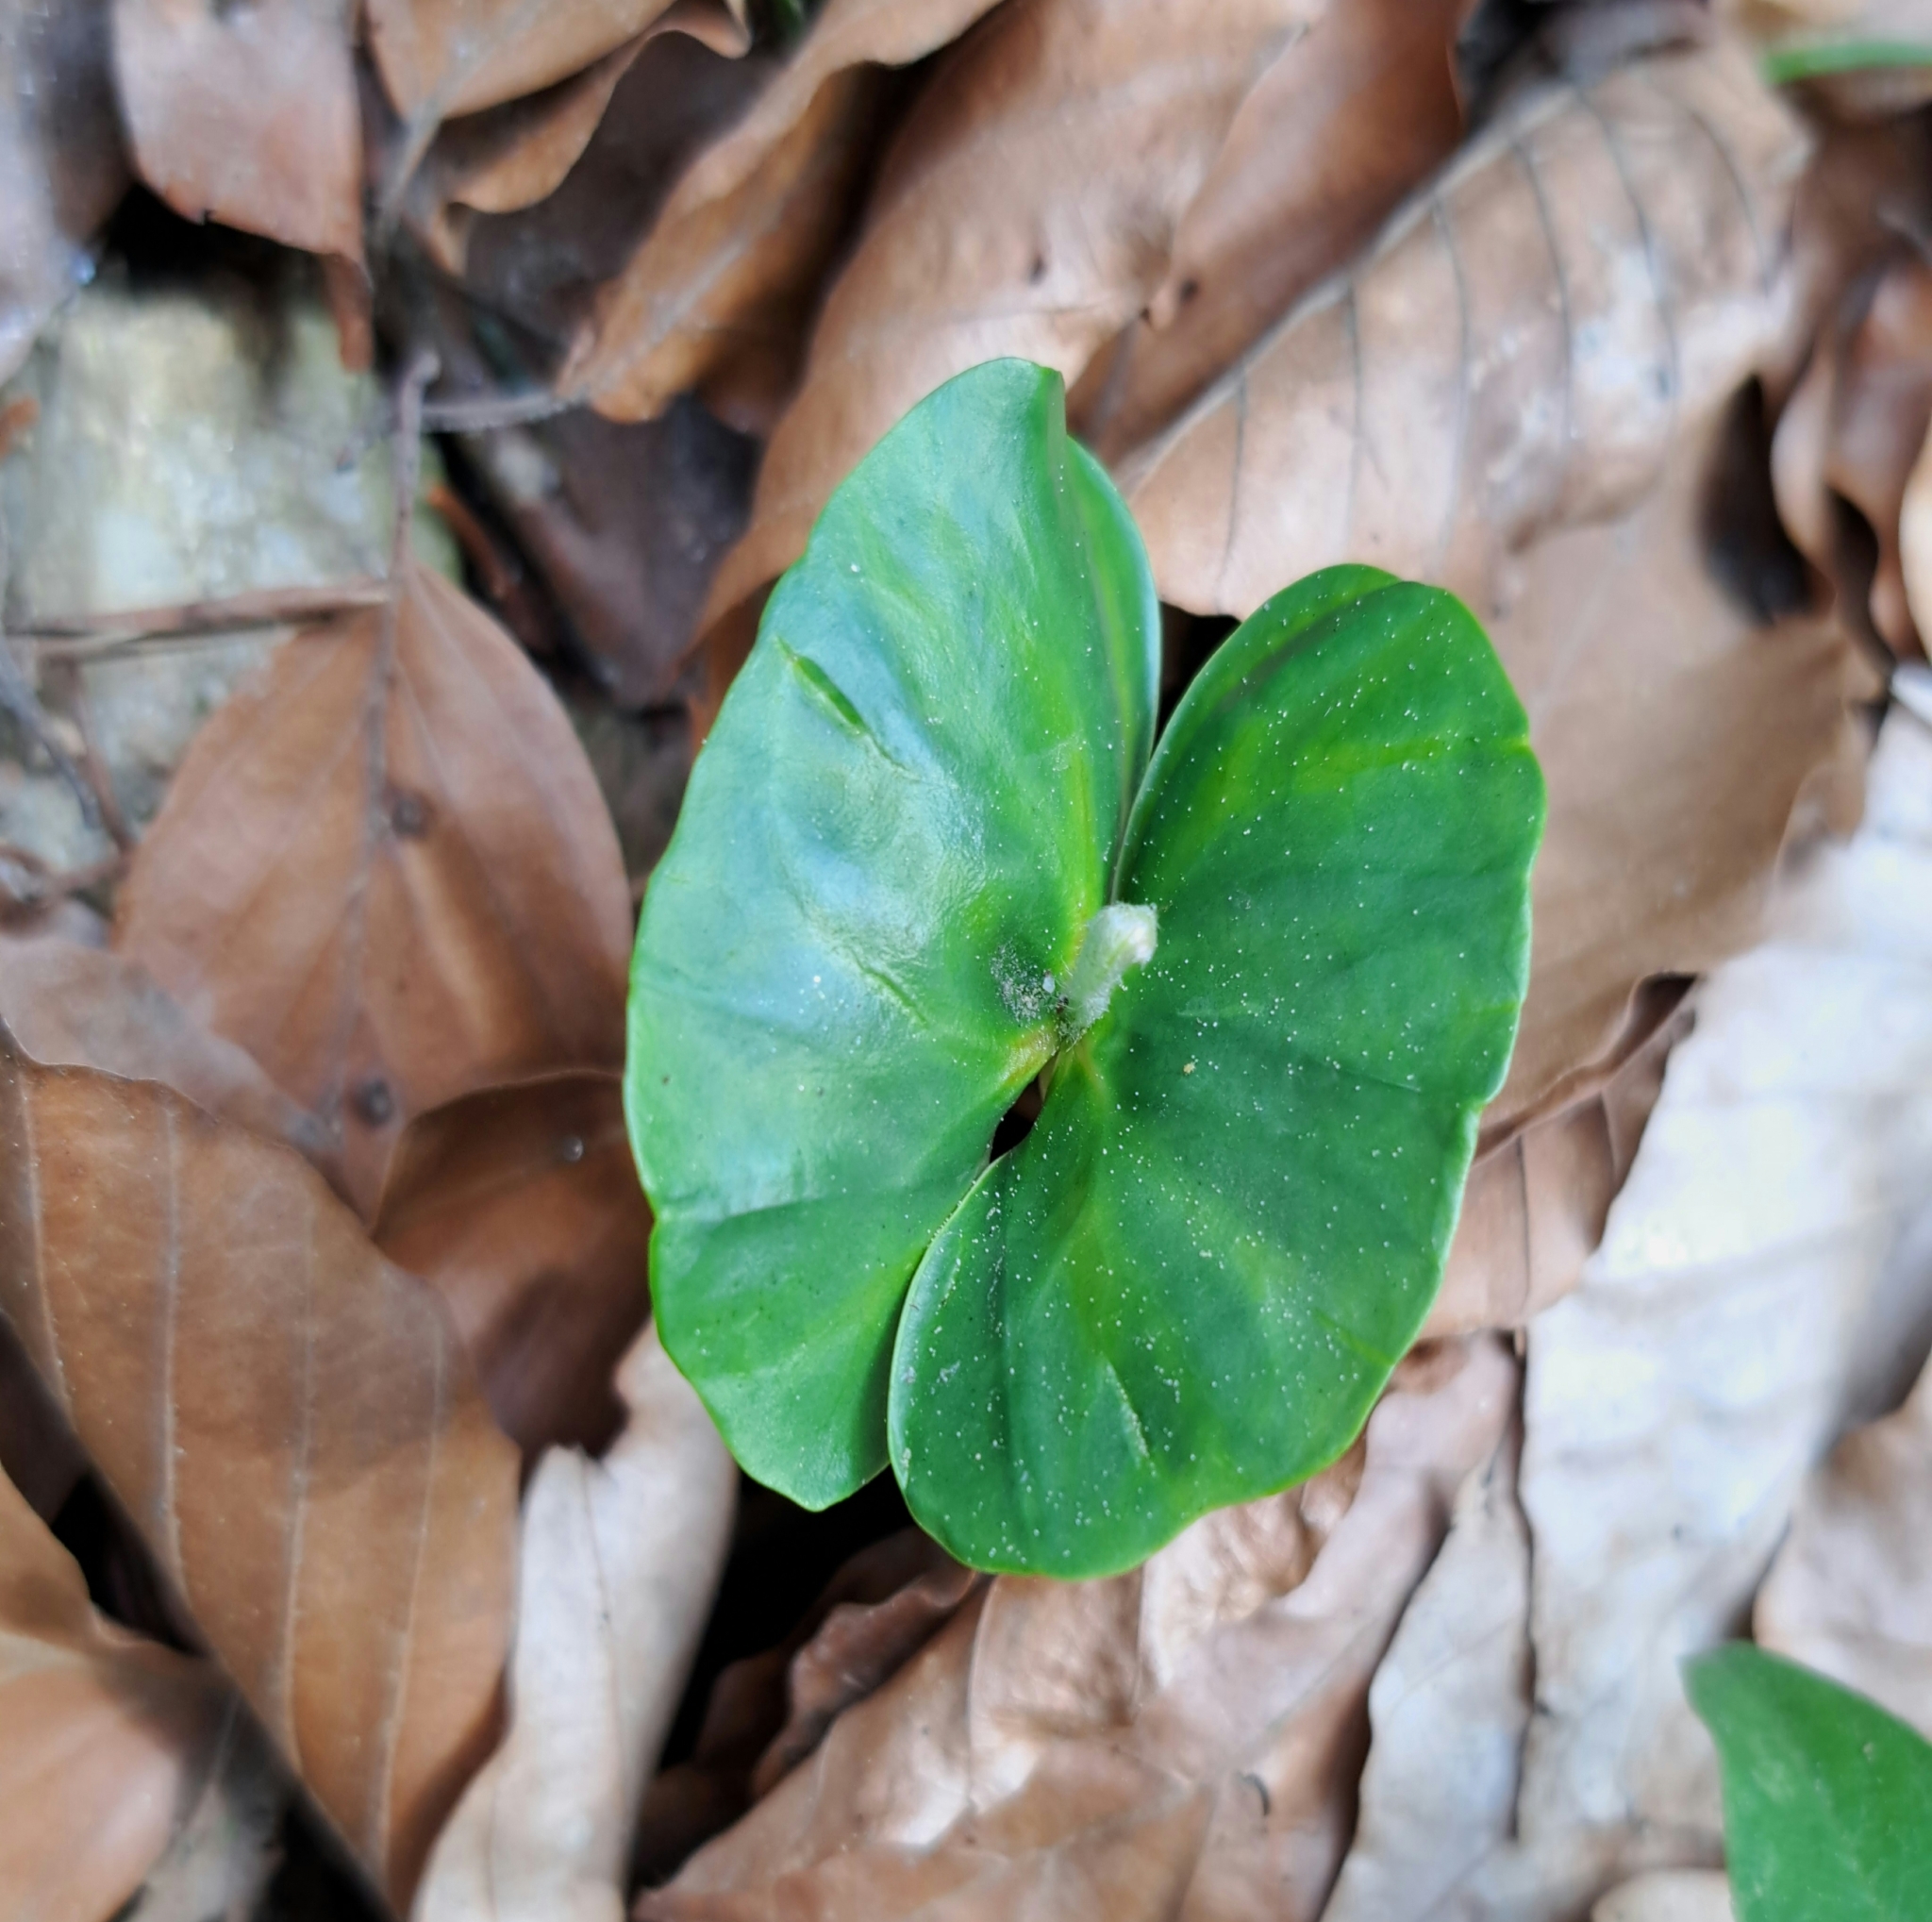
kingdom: Plantae
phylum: Tracheophyta
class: Magnoliopsida
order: Fagales
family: Fagaceae
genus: Fagus
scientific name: Fagus sylvatica
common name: Beech
